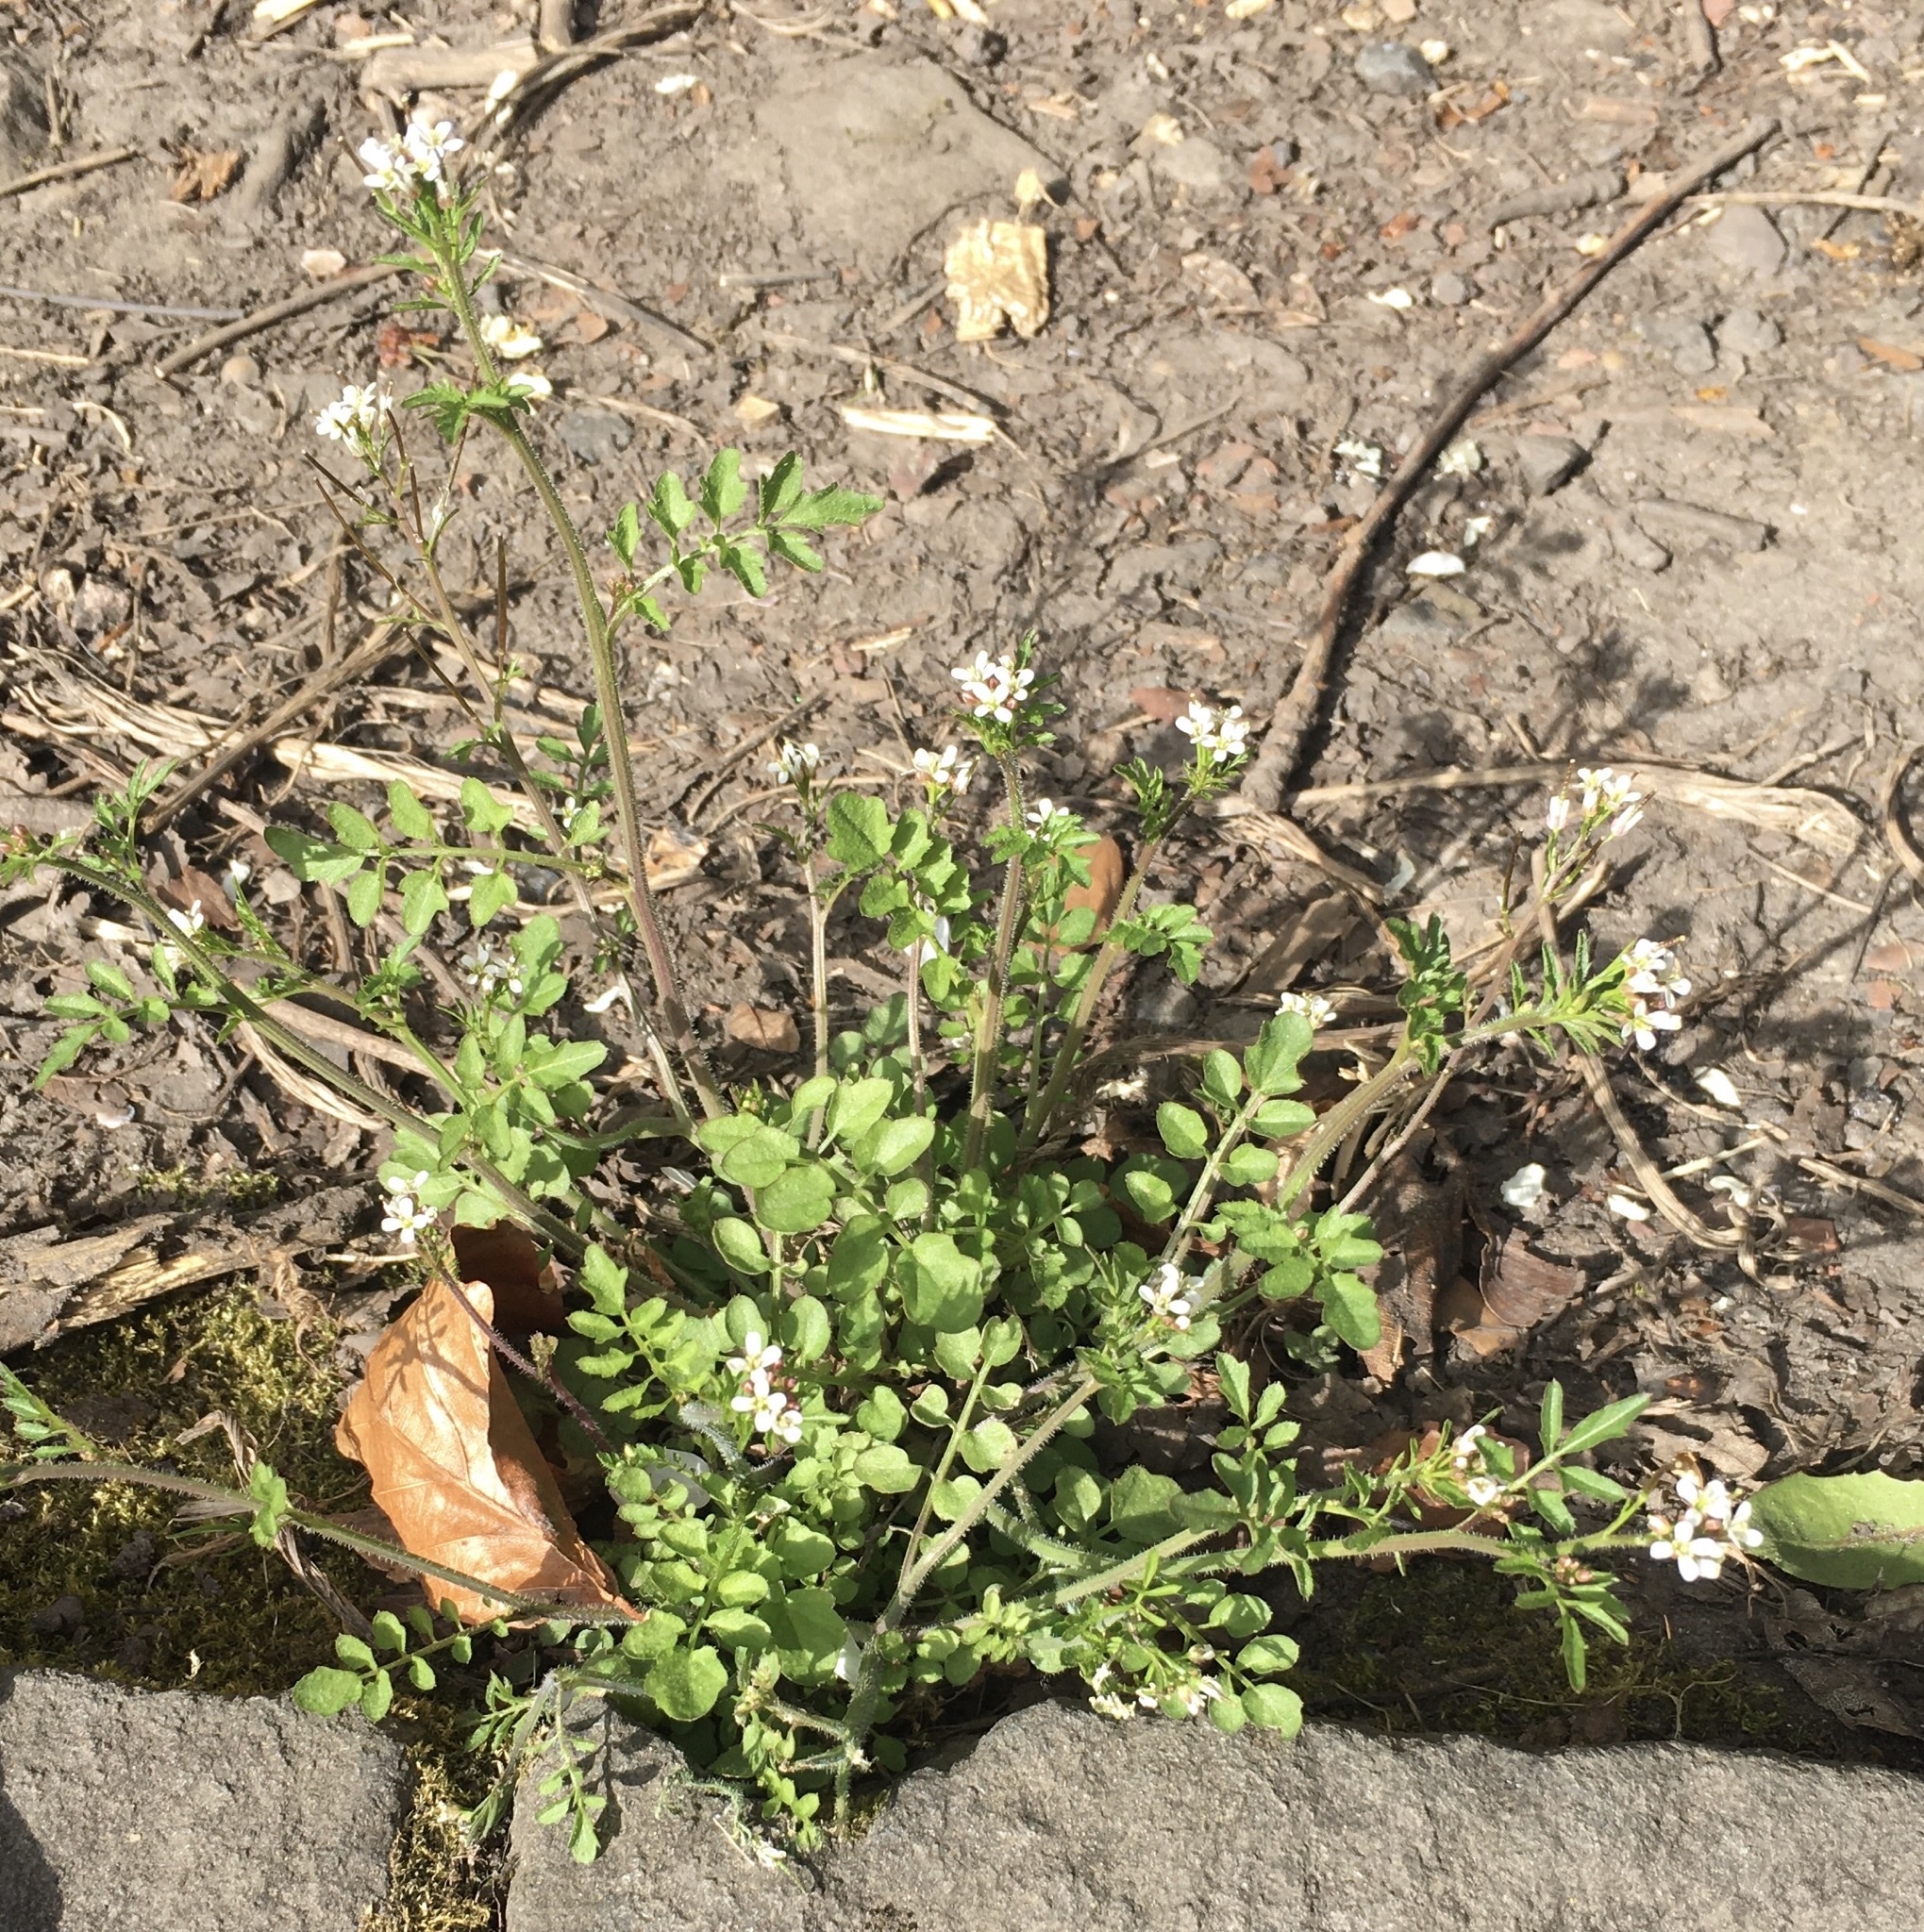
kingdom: Plantae
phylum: Tracheophyta
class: Magnoliopsida
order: Brassicales
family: Brassicaceae
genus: Cardamine
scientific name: Cardamine flexuosa
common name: Woodland bittercress
